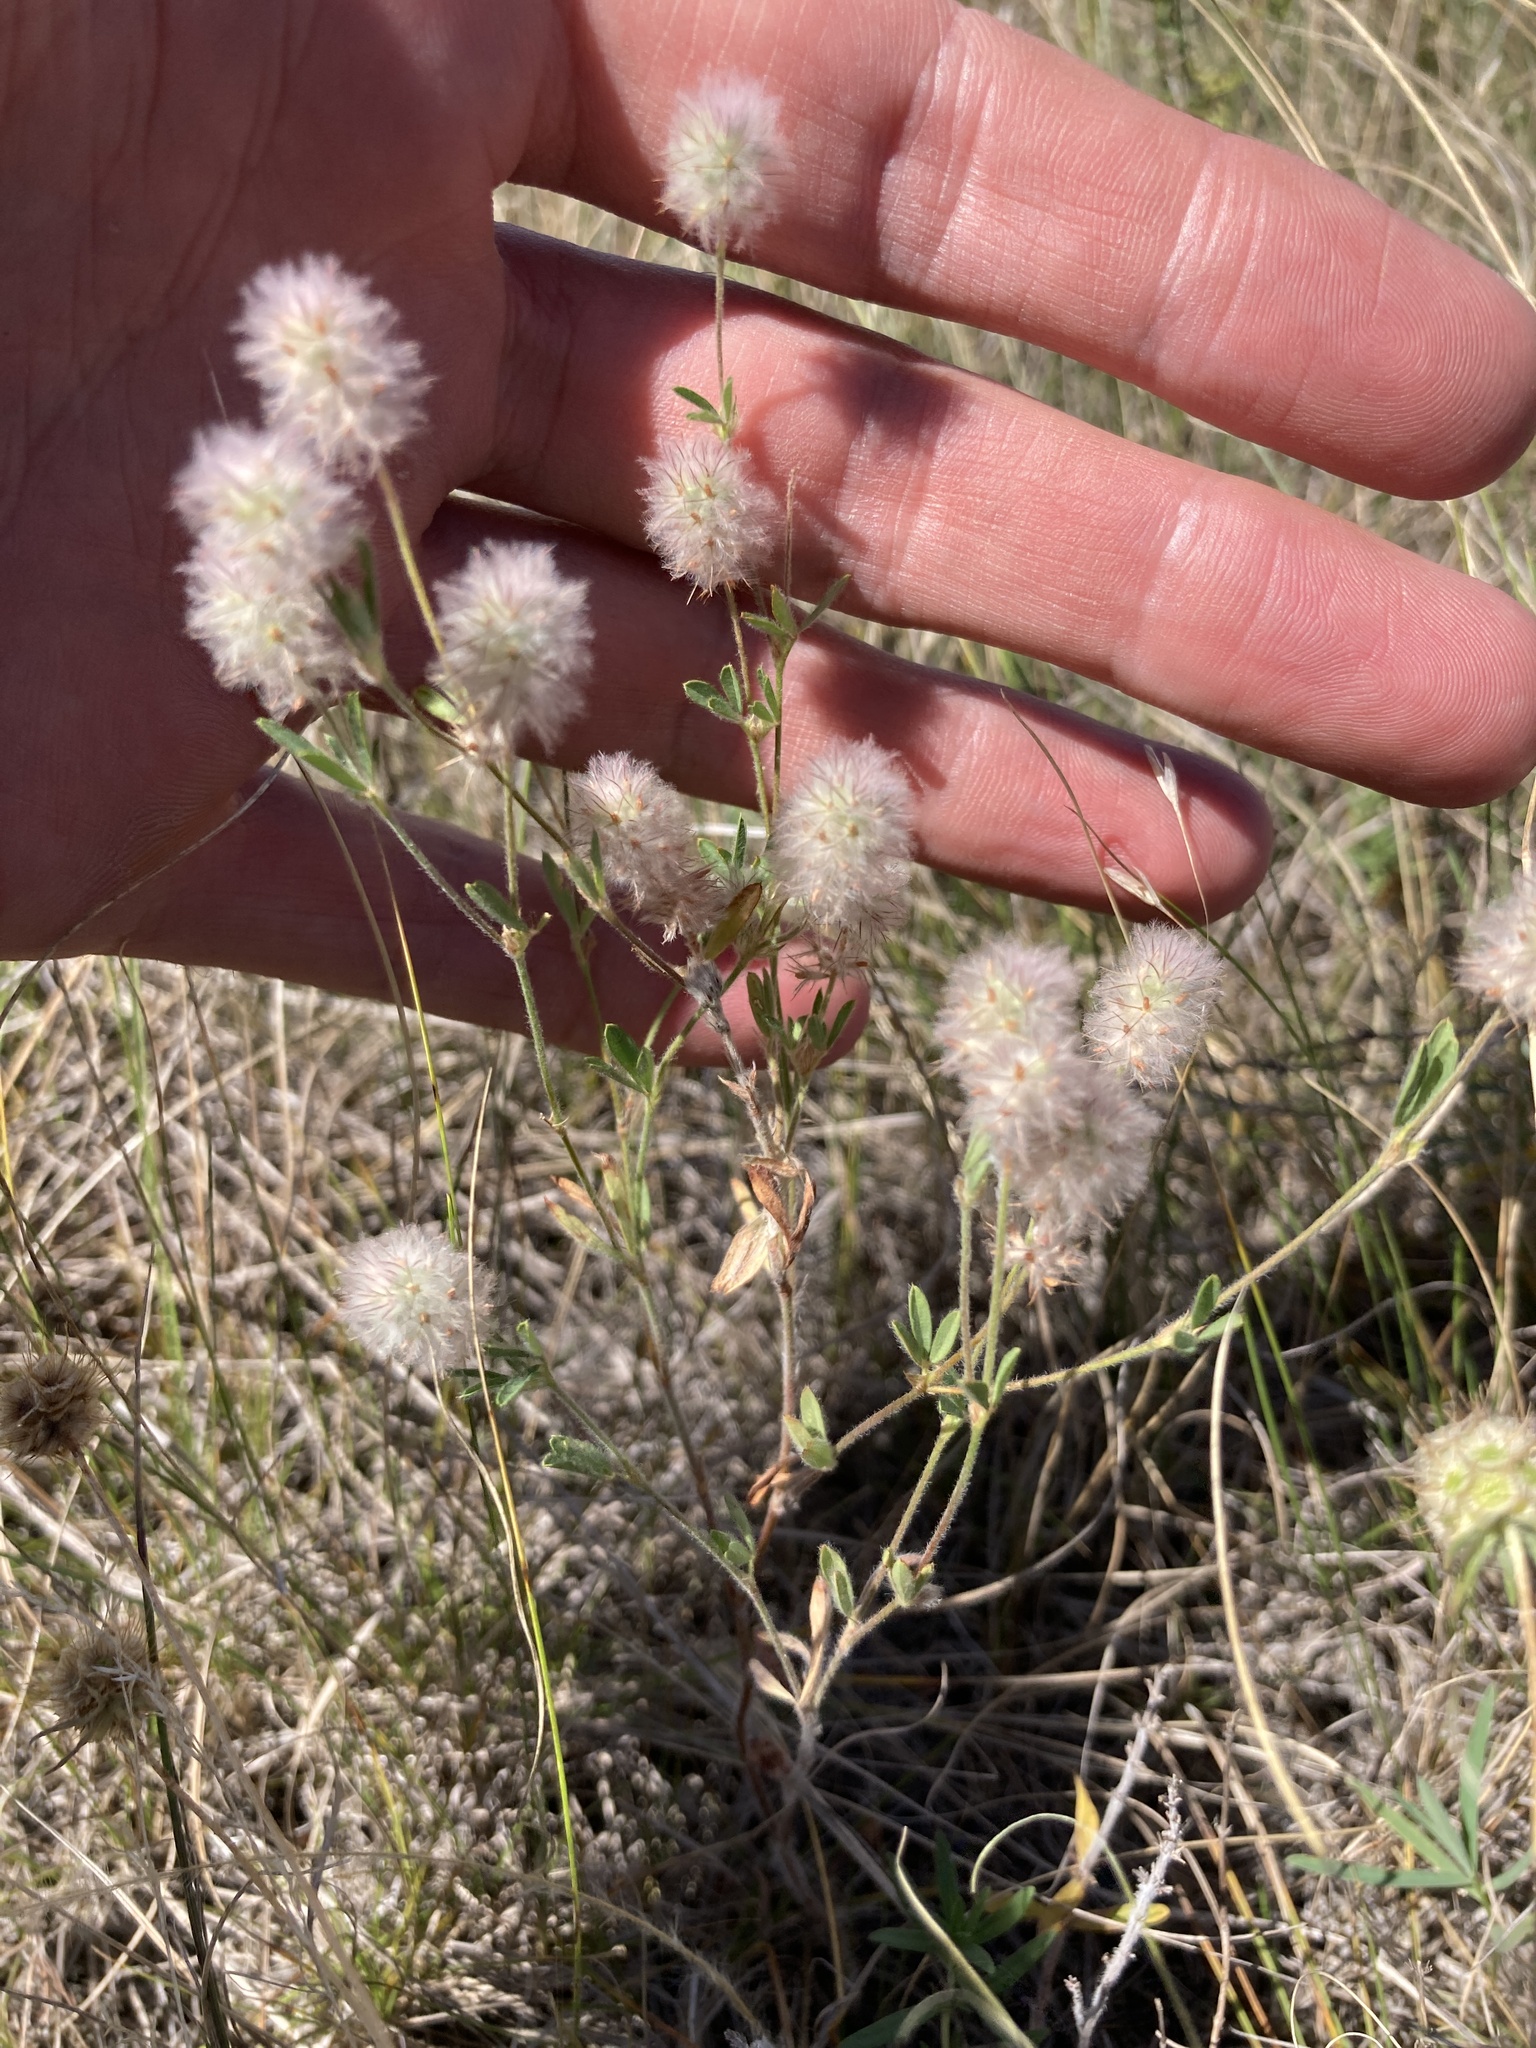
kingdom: Plantae
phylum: Tracheophyta
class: Magnoliopsida
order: Fabales
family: Fabaceae
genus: Trifolium
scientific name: Trifolium arvense
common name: Hare's-foot clover
